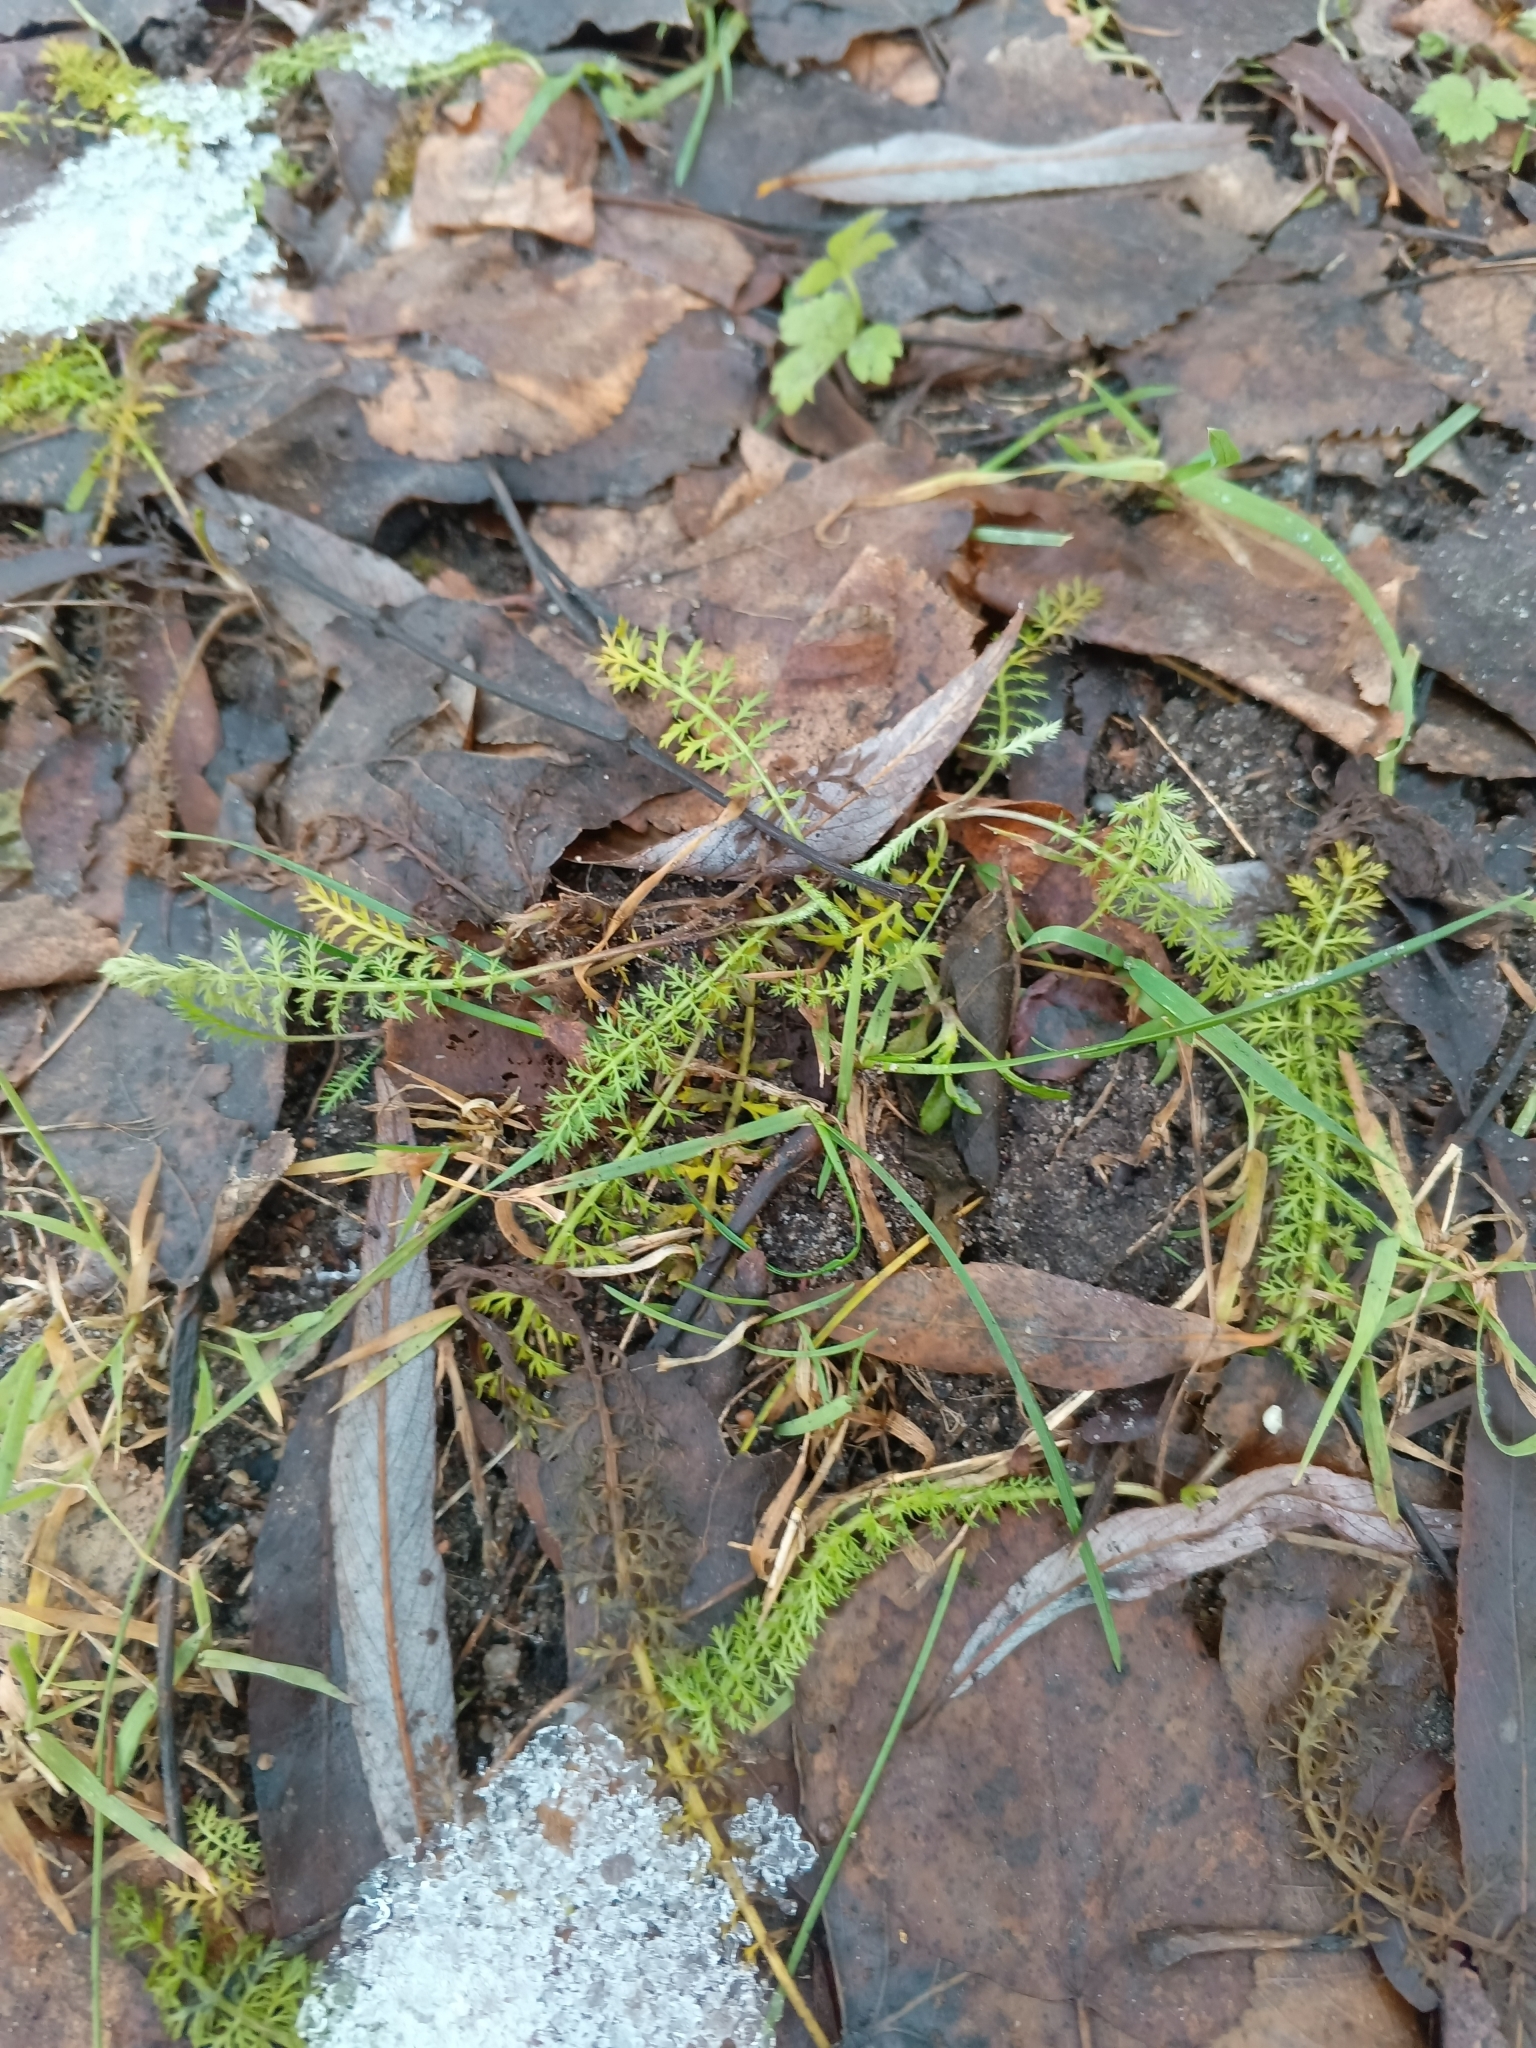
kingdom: Plantae
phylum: Tracheophyta
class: Magnoliopsida
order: Asterales
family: Asteraceae
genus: Achillea
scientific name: Achillea millefolium
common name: Yarrow
